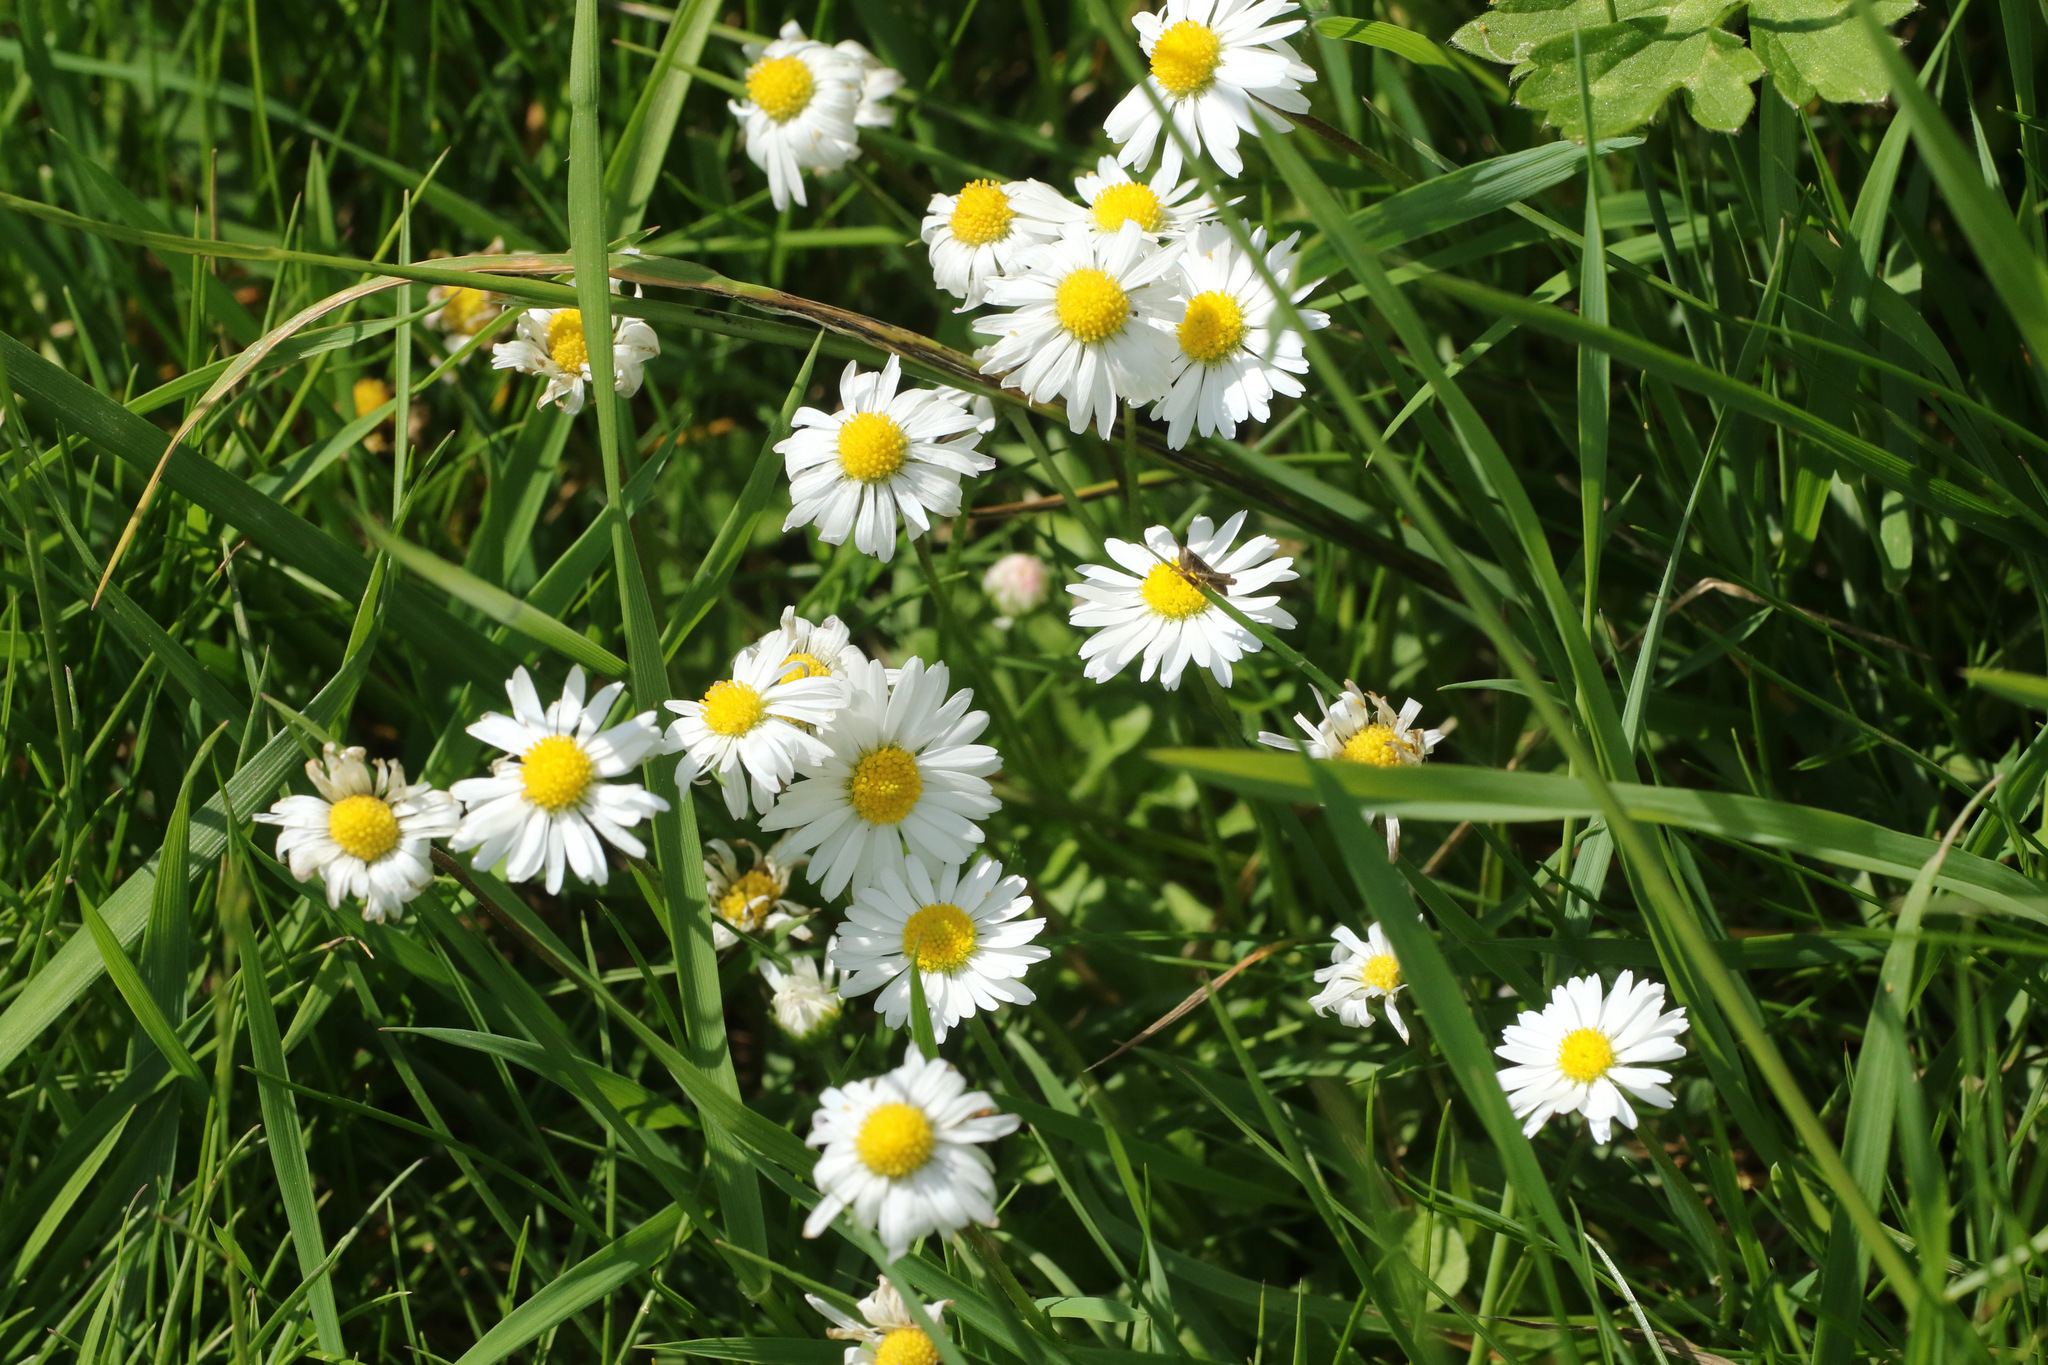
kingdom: Plantae
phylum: Tracheophyta
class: Magnoliopsida
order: Asterales
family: Asteraceae
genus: Bellis
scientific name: Bellis perennis
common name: Lawndaisy
